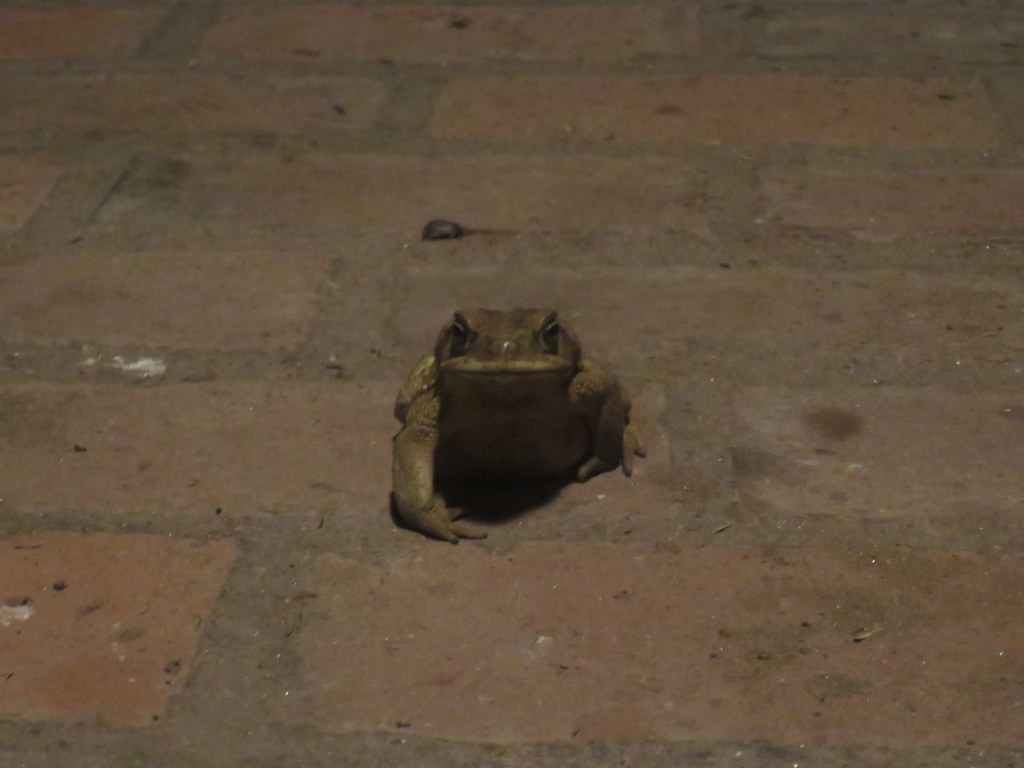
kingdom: Animalia
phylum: Chordata
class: Amphibia
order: Anura
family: Bufonidae
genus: Rhinella
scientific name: Rhinella arenarum
